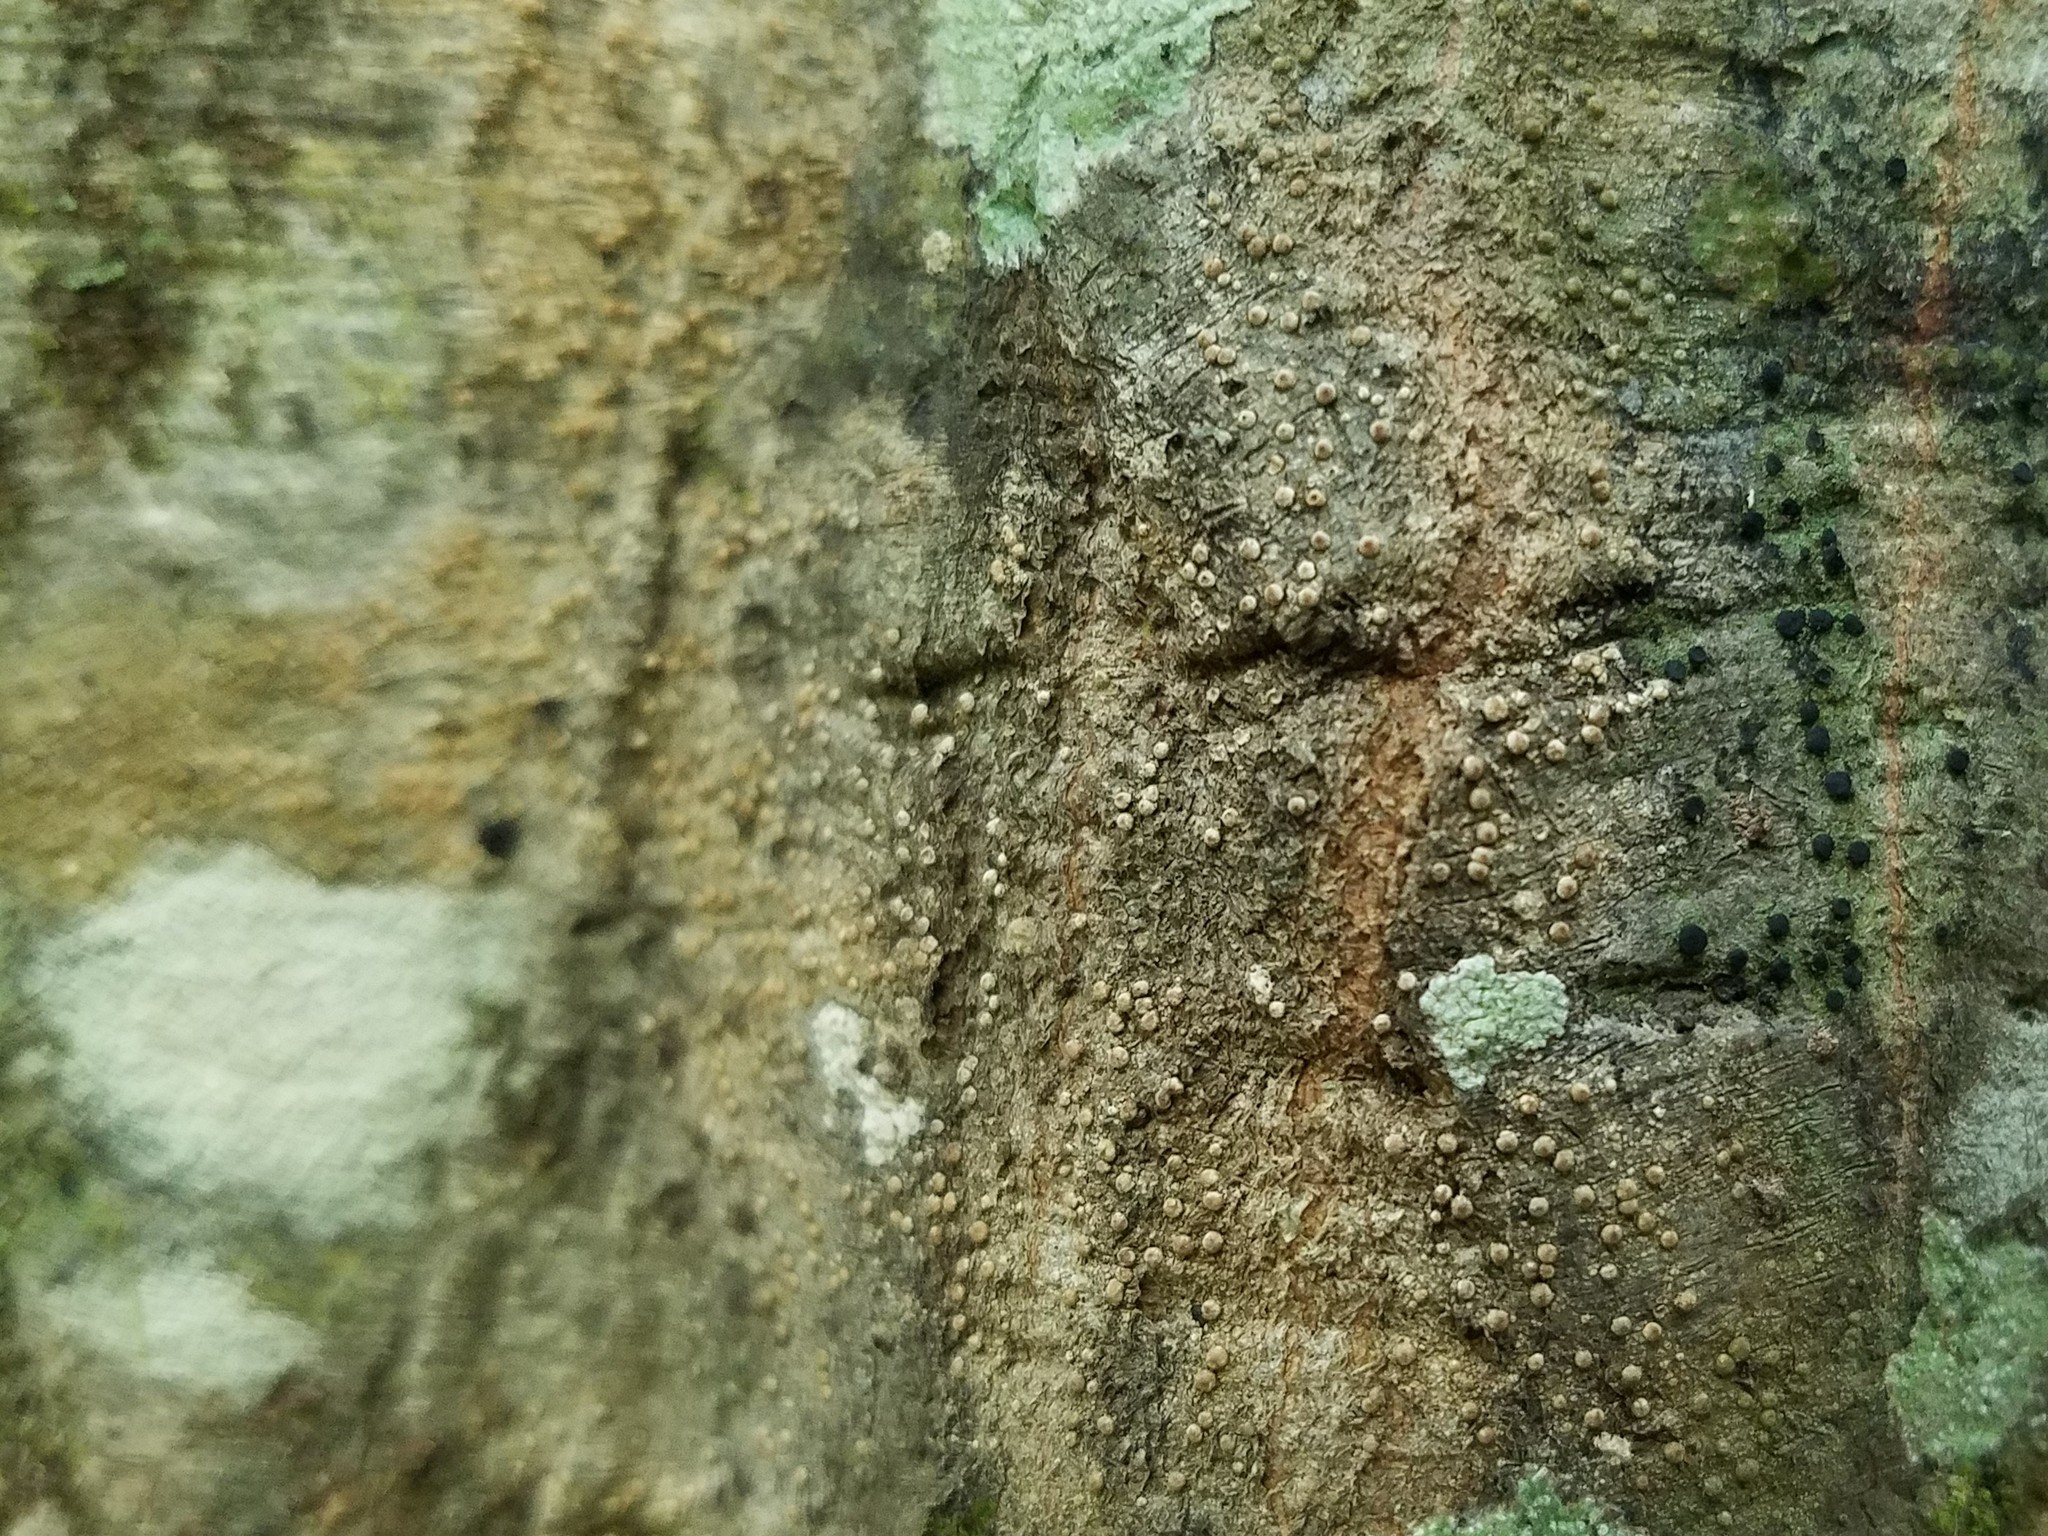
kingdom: Fungi
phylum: Ascomycota
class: Lecanoromycetes
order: Pertusariales
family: Pertusariaceae
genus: Porina
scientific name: Porina heterospora
